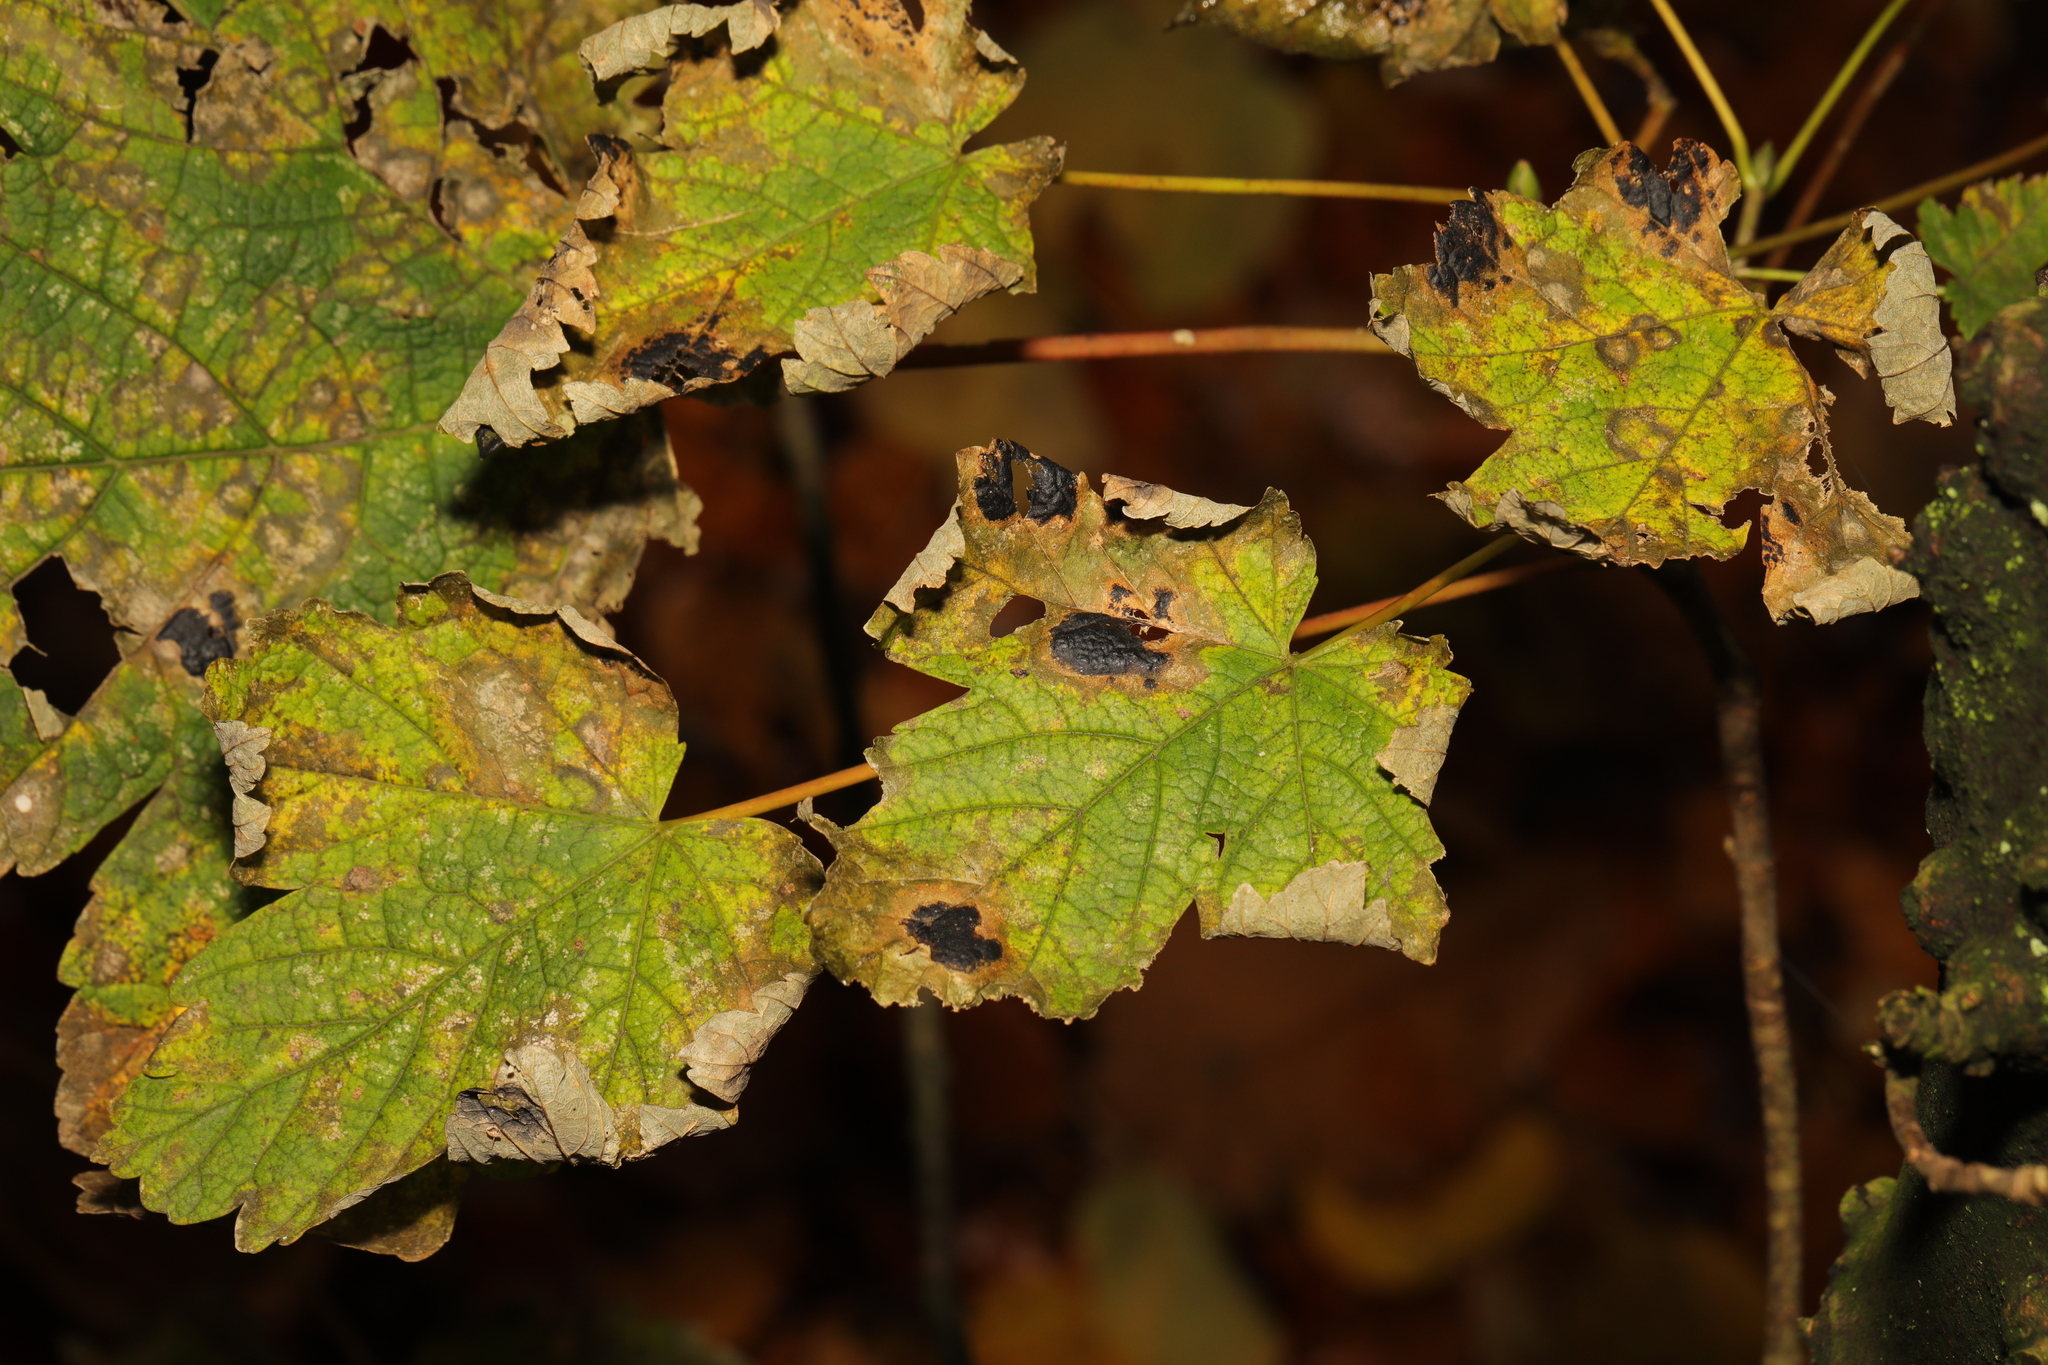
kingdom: Fungi
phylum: Ascomycota
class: Leotiomycetes
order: Rhytismatales
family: Rhytismataceae
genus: Rhytisma
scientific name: Rhytisma acerinum
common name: European tar spot
